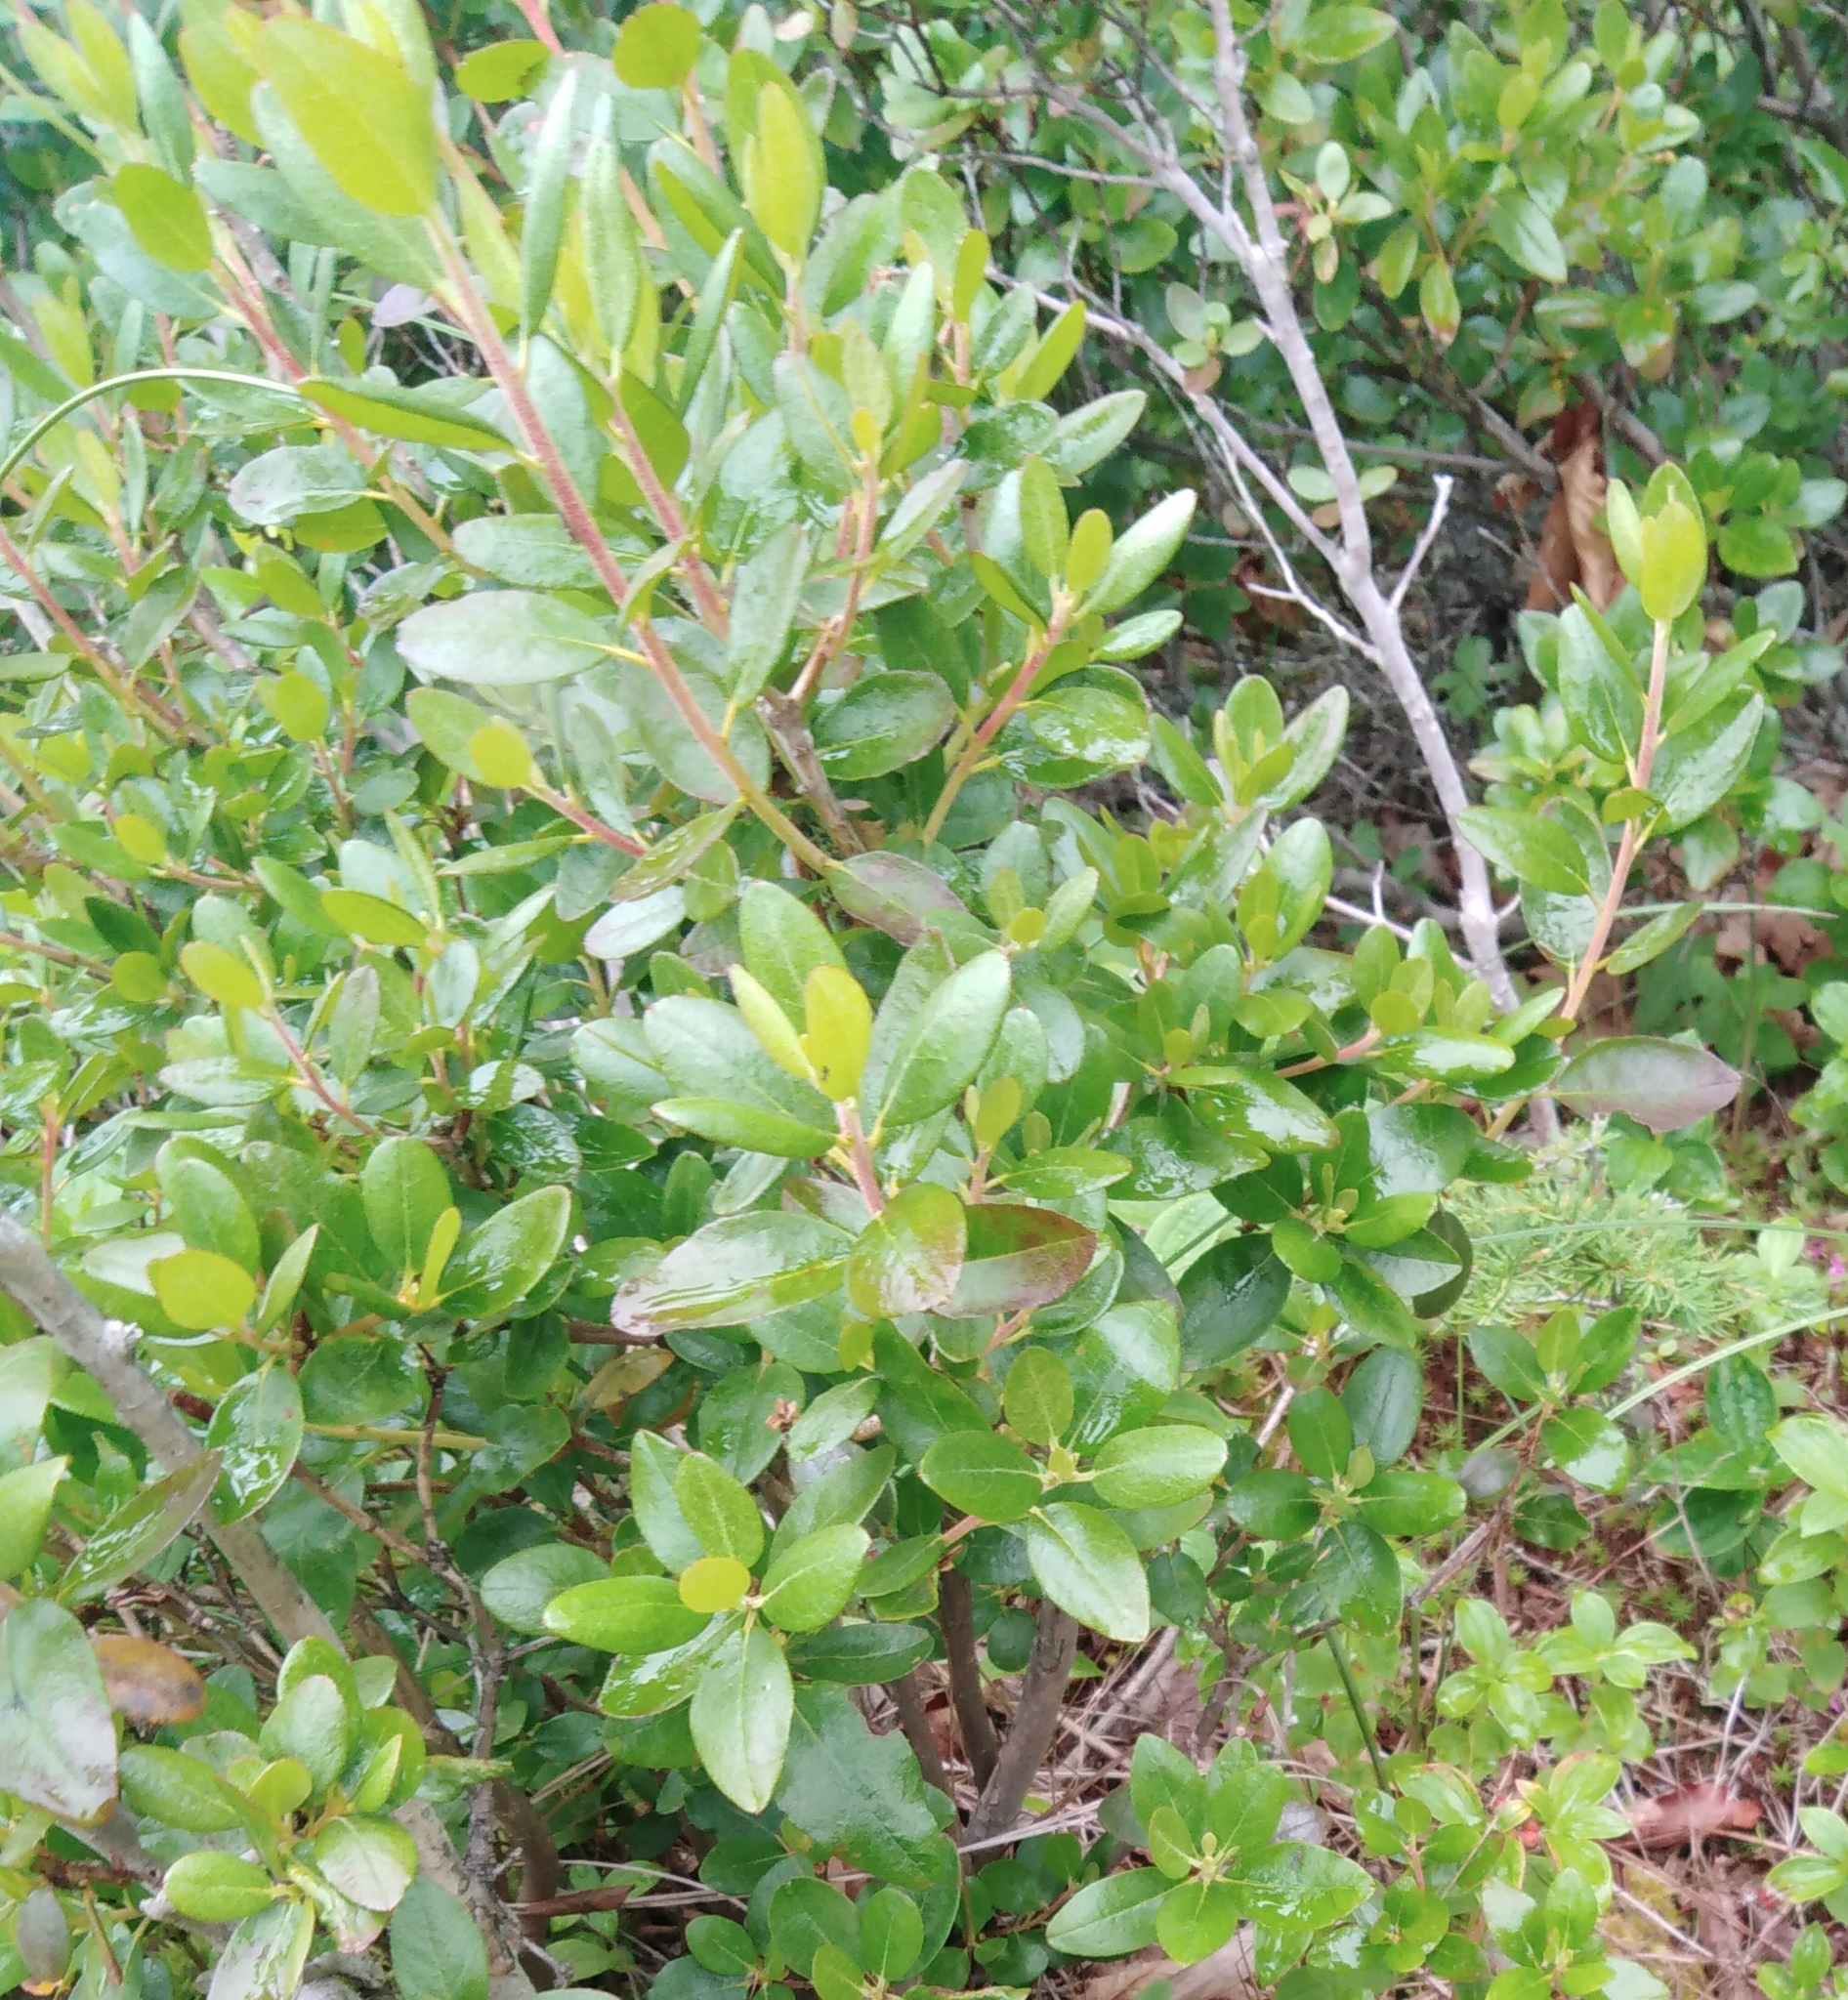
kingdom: Plantae
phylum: Tracheophyta
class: Magnoliopsida
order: Ericales
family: Ericaceae
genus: Rhododendron
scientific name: Rhododendron sichotense
